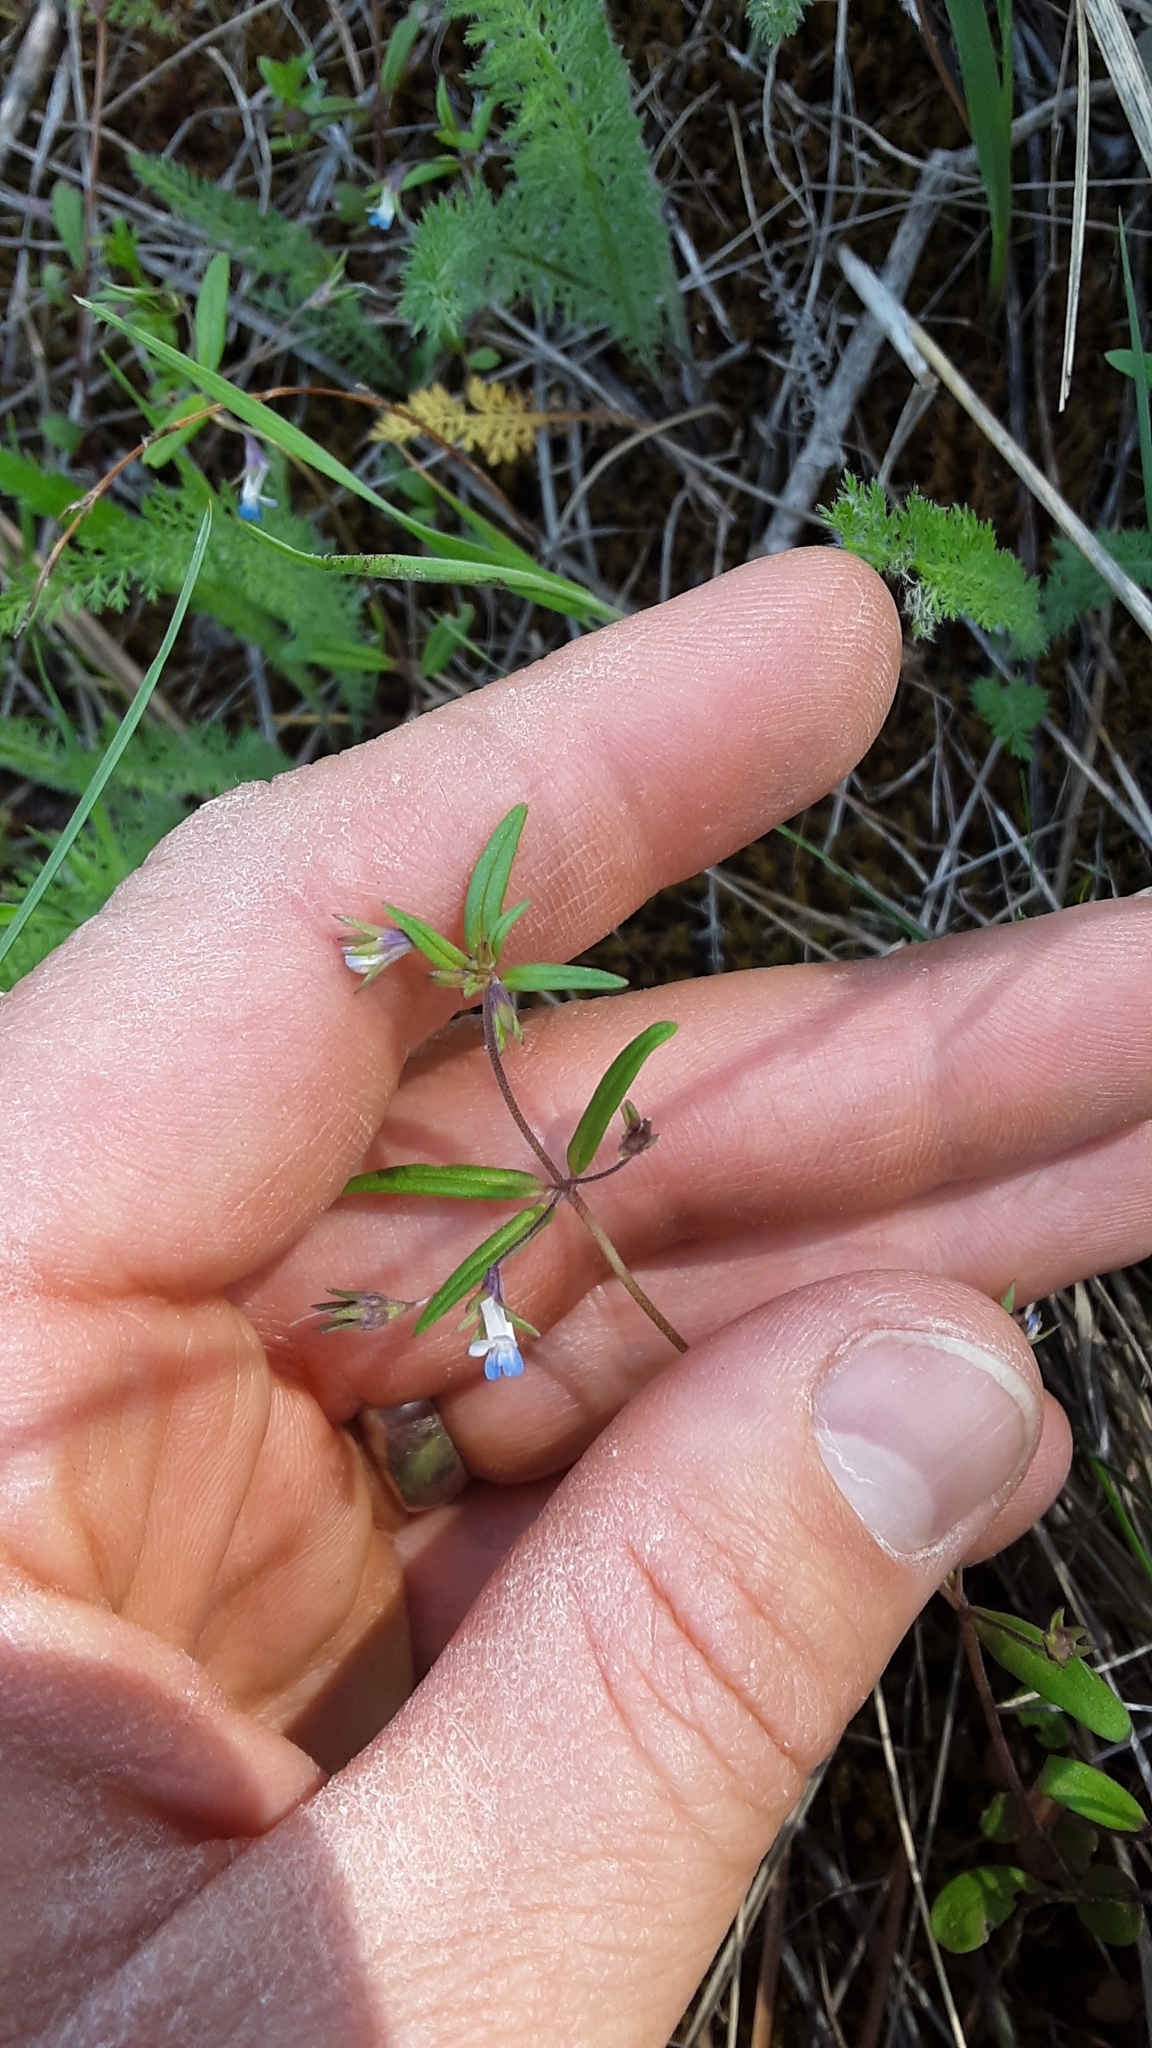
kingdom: Plantae
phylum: Tracheophyta
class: Magnoliopsida
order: Lamiales
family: Plantaginaceae
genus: Collinsia
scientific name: Collinsia parviflora
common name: Blue-lips
